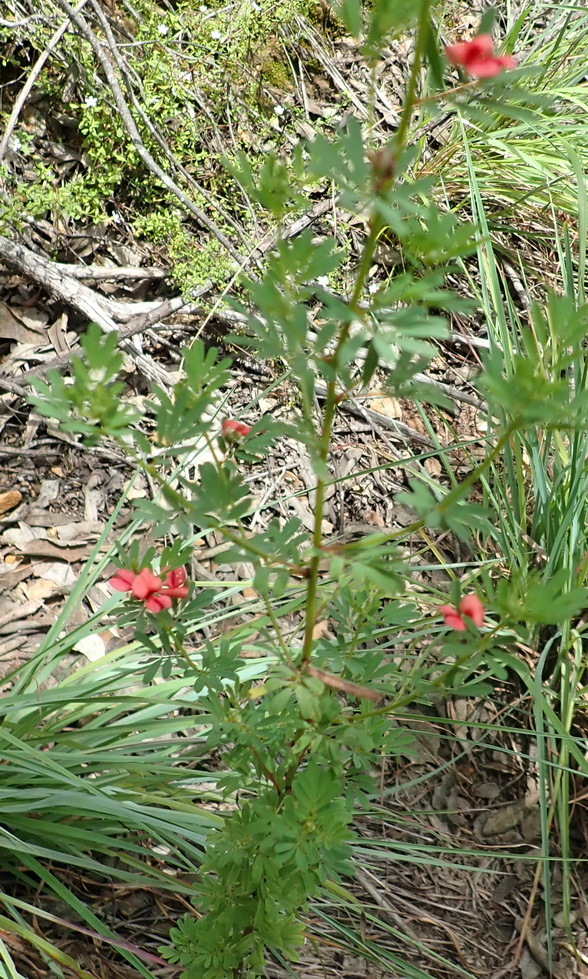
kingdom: Plantae
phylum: Tracheophyta
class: Magnoliopsida
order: Fabales
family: Fabaceae
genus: Indigofera
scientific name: Indigofera stricta
